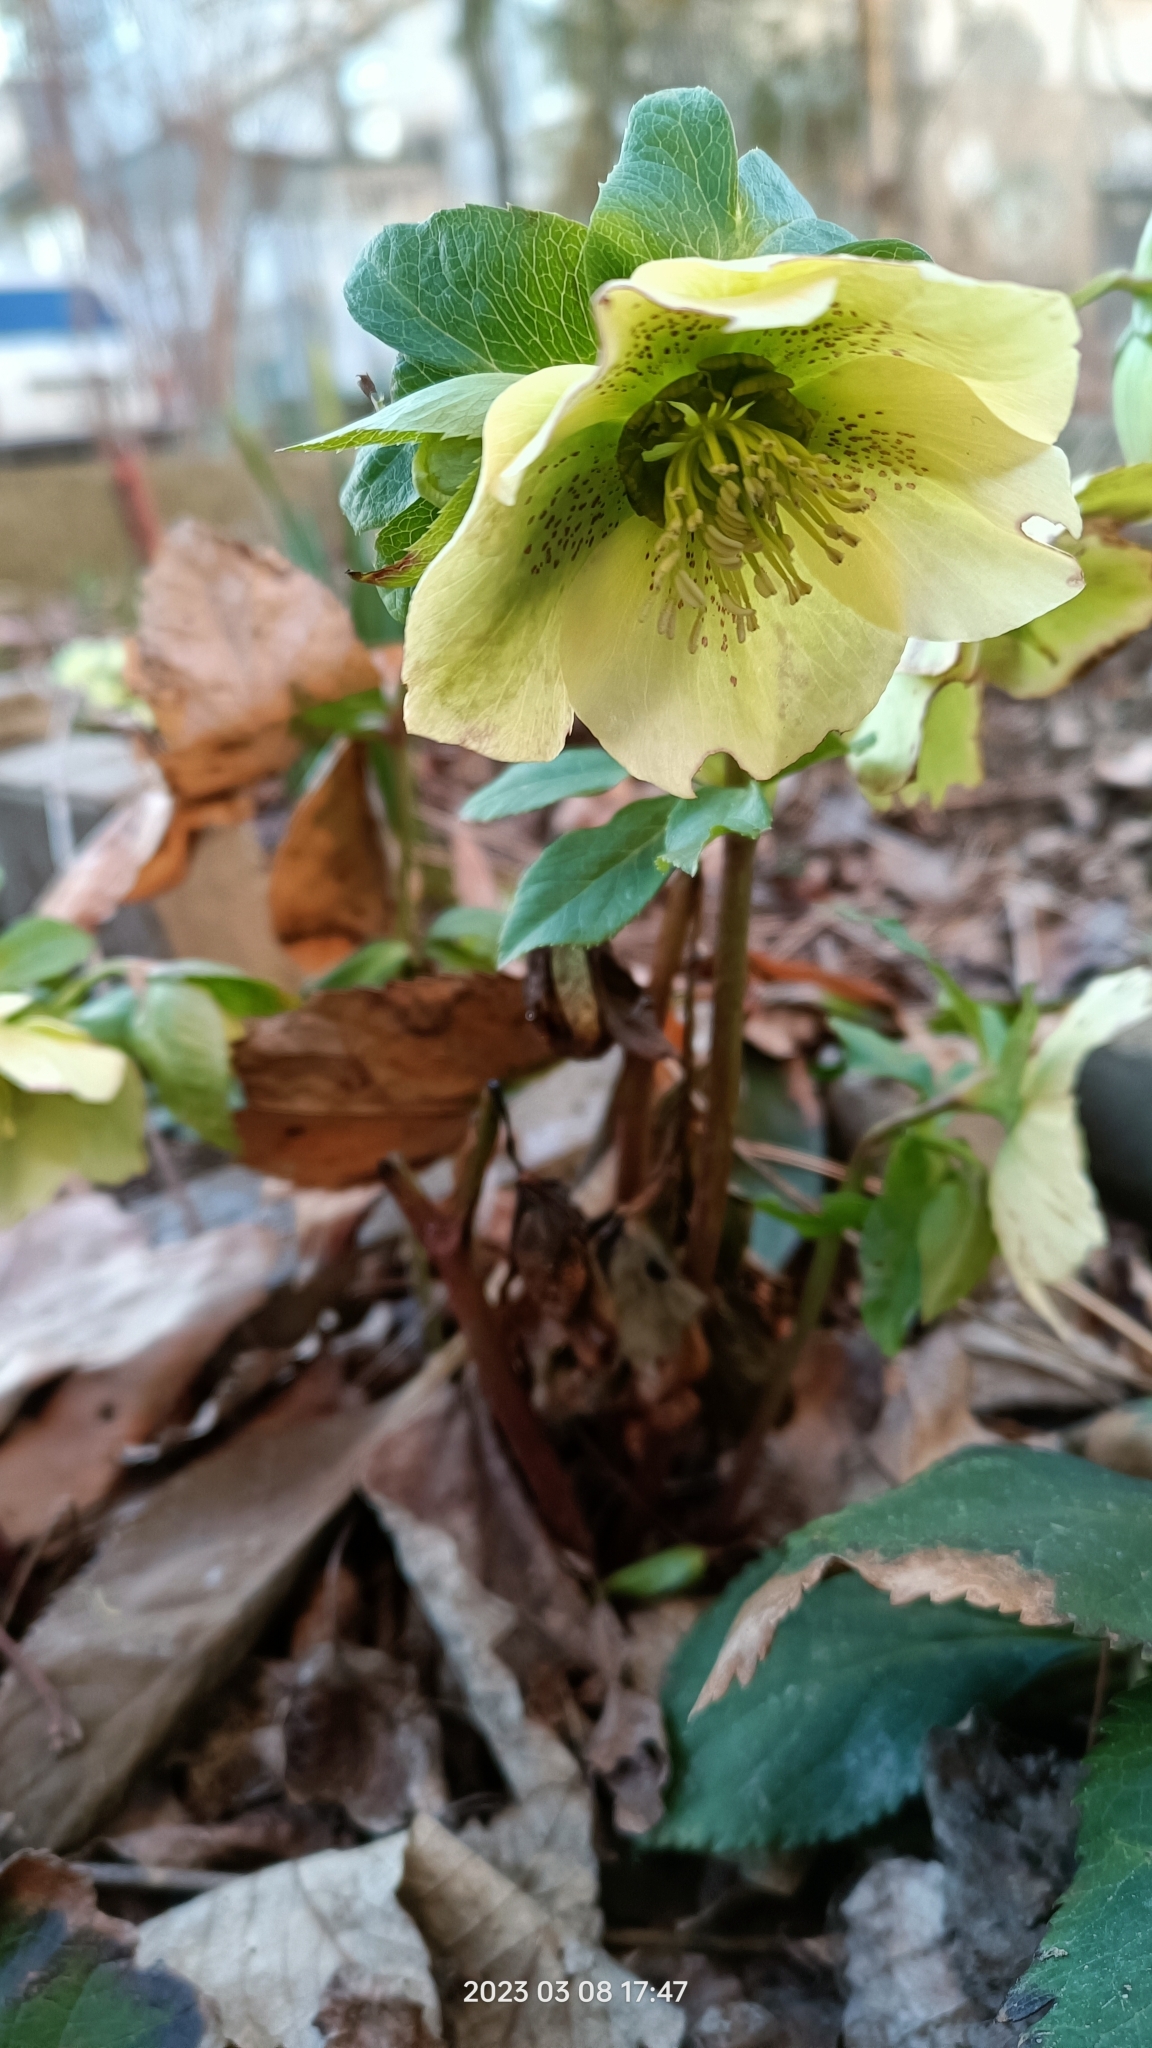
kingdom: Plantae
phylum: Tracheophyta
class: Magnoliopsida
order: Ranunculales
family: Ranunculaceae
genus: Helleborus
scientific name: Helleborus orientalis
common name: Lenten-rose
